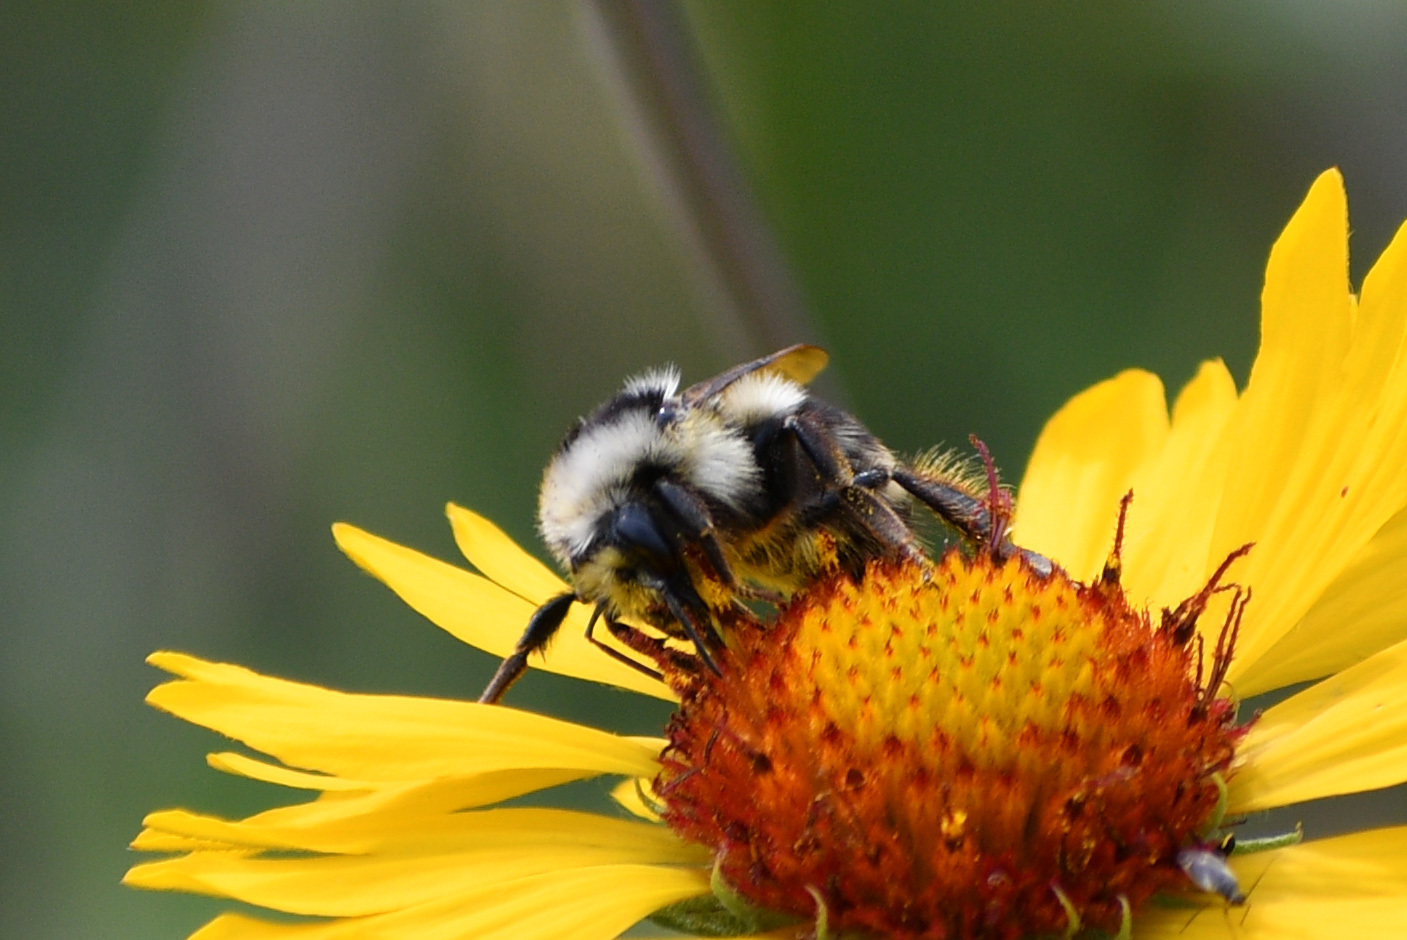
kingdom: Animalia
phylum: Arthropoda
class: Insecta
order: Hymenoptera
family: Apidae
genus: Bombus
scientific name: Bombus vancouverensis
